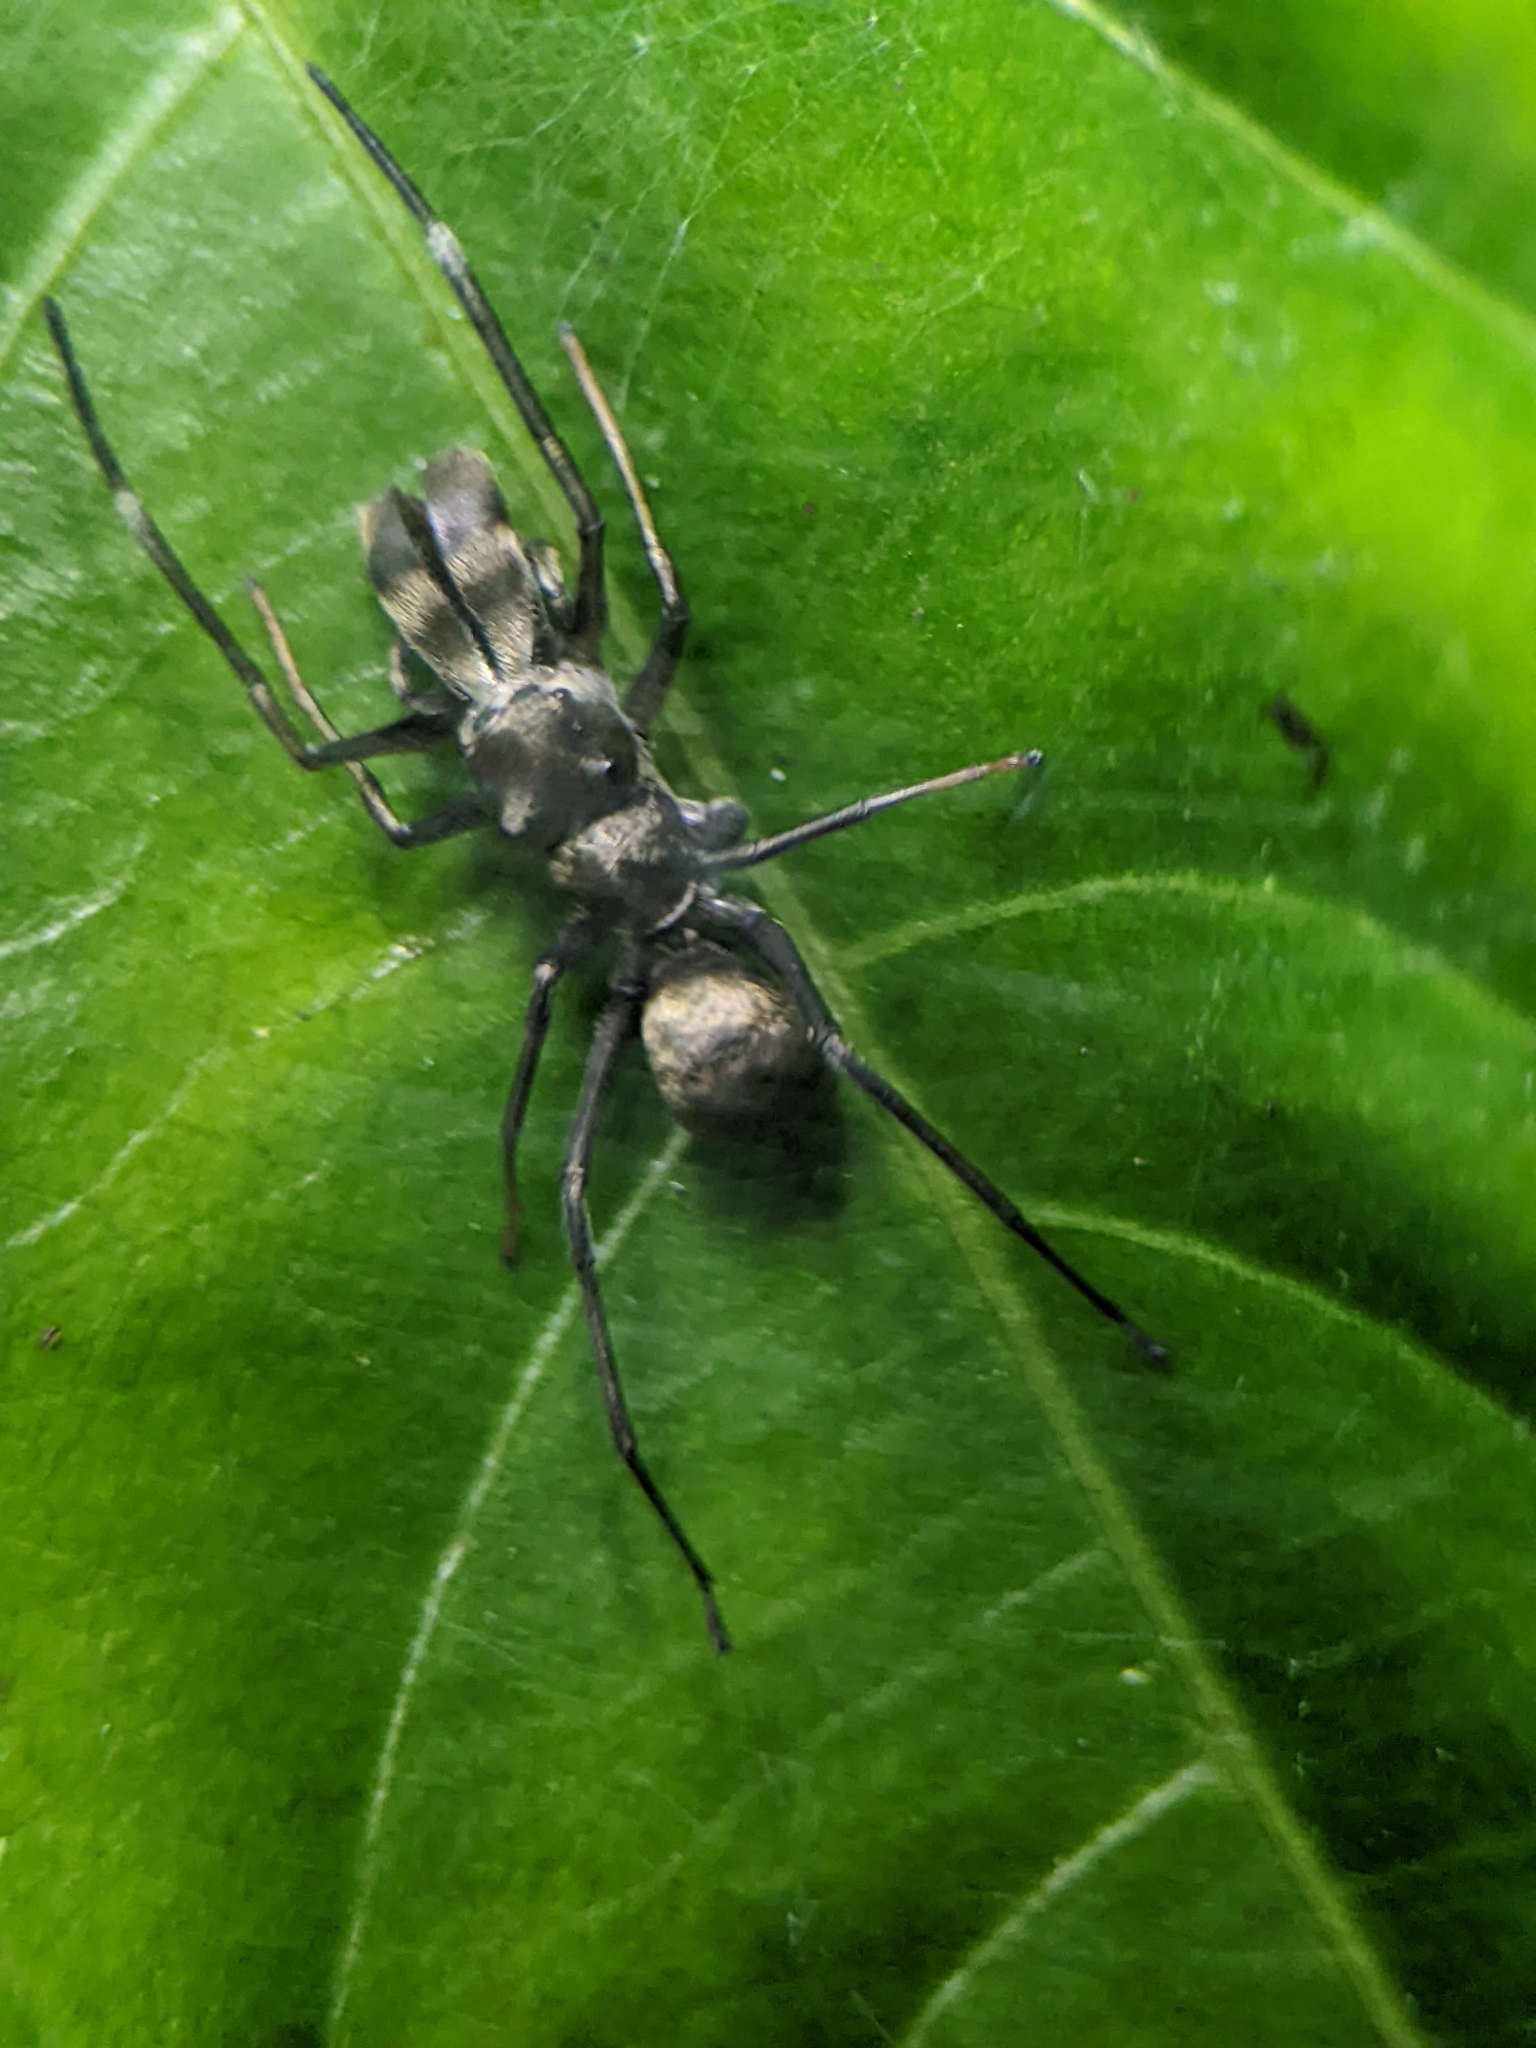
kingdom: Animalia
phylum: Arthropoda
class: Arachnida
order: Araneae
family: Salticidae
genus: Toxeus
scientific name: Toxeus maxillosus
